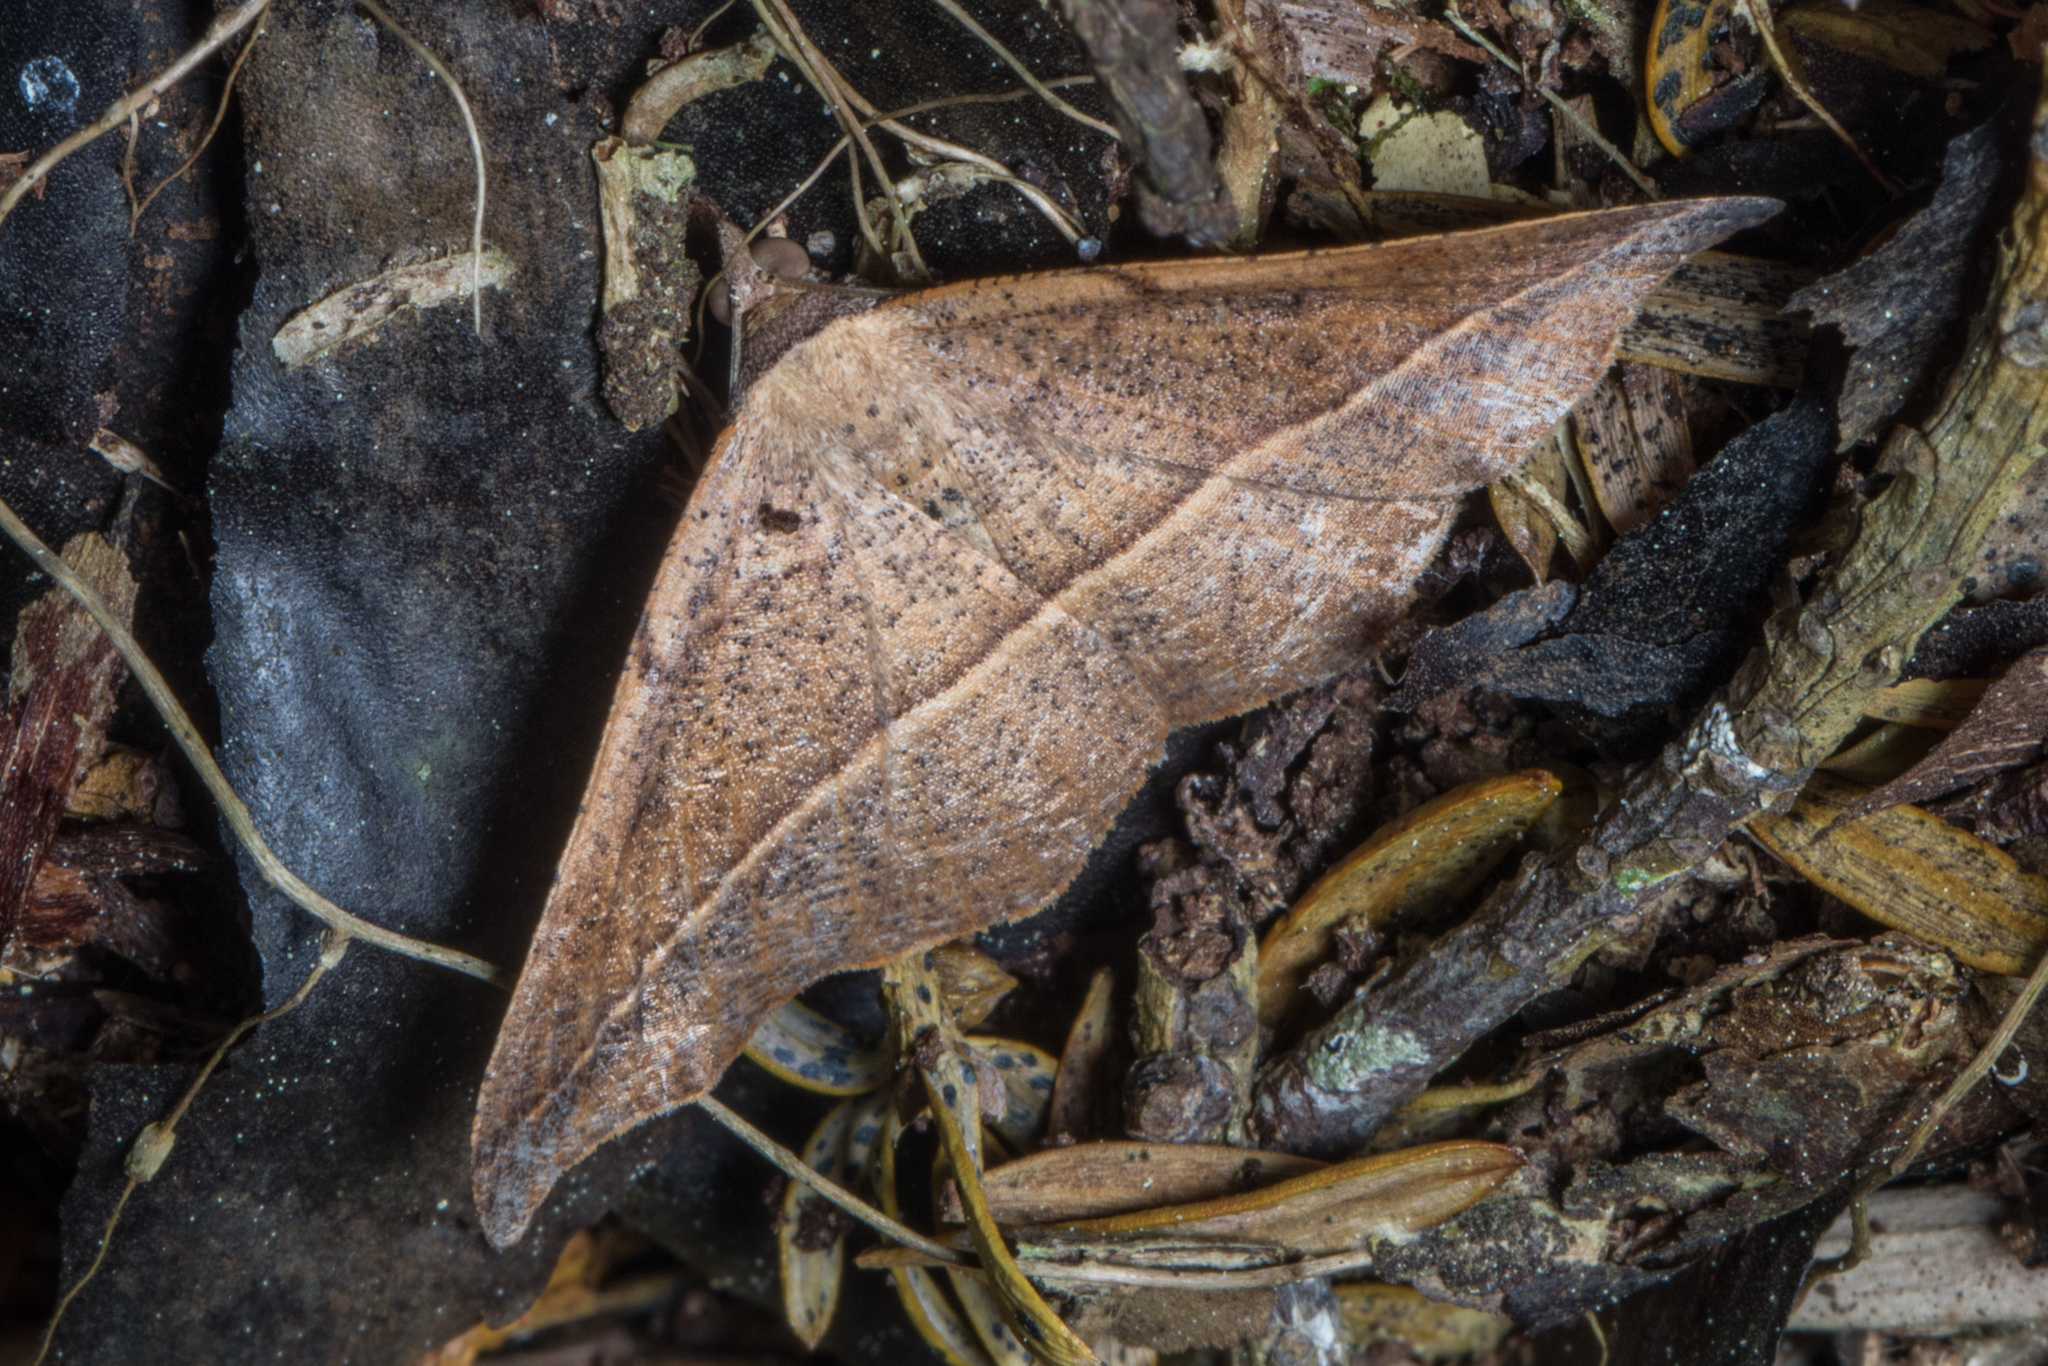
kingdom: Animalia
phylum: Arthropoda
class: Insecta
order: Lepidoptera
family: Geometridae
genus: Sarisa
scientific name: Sarisa muriferata
